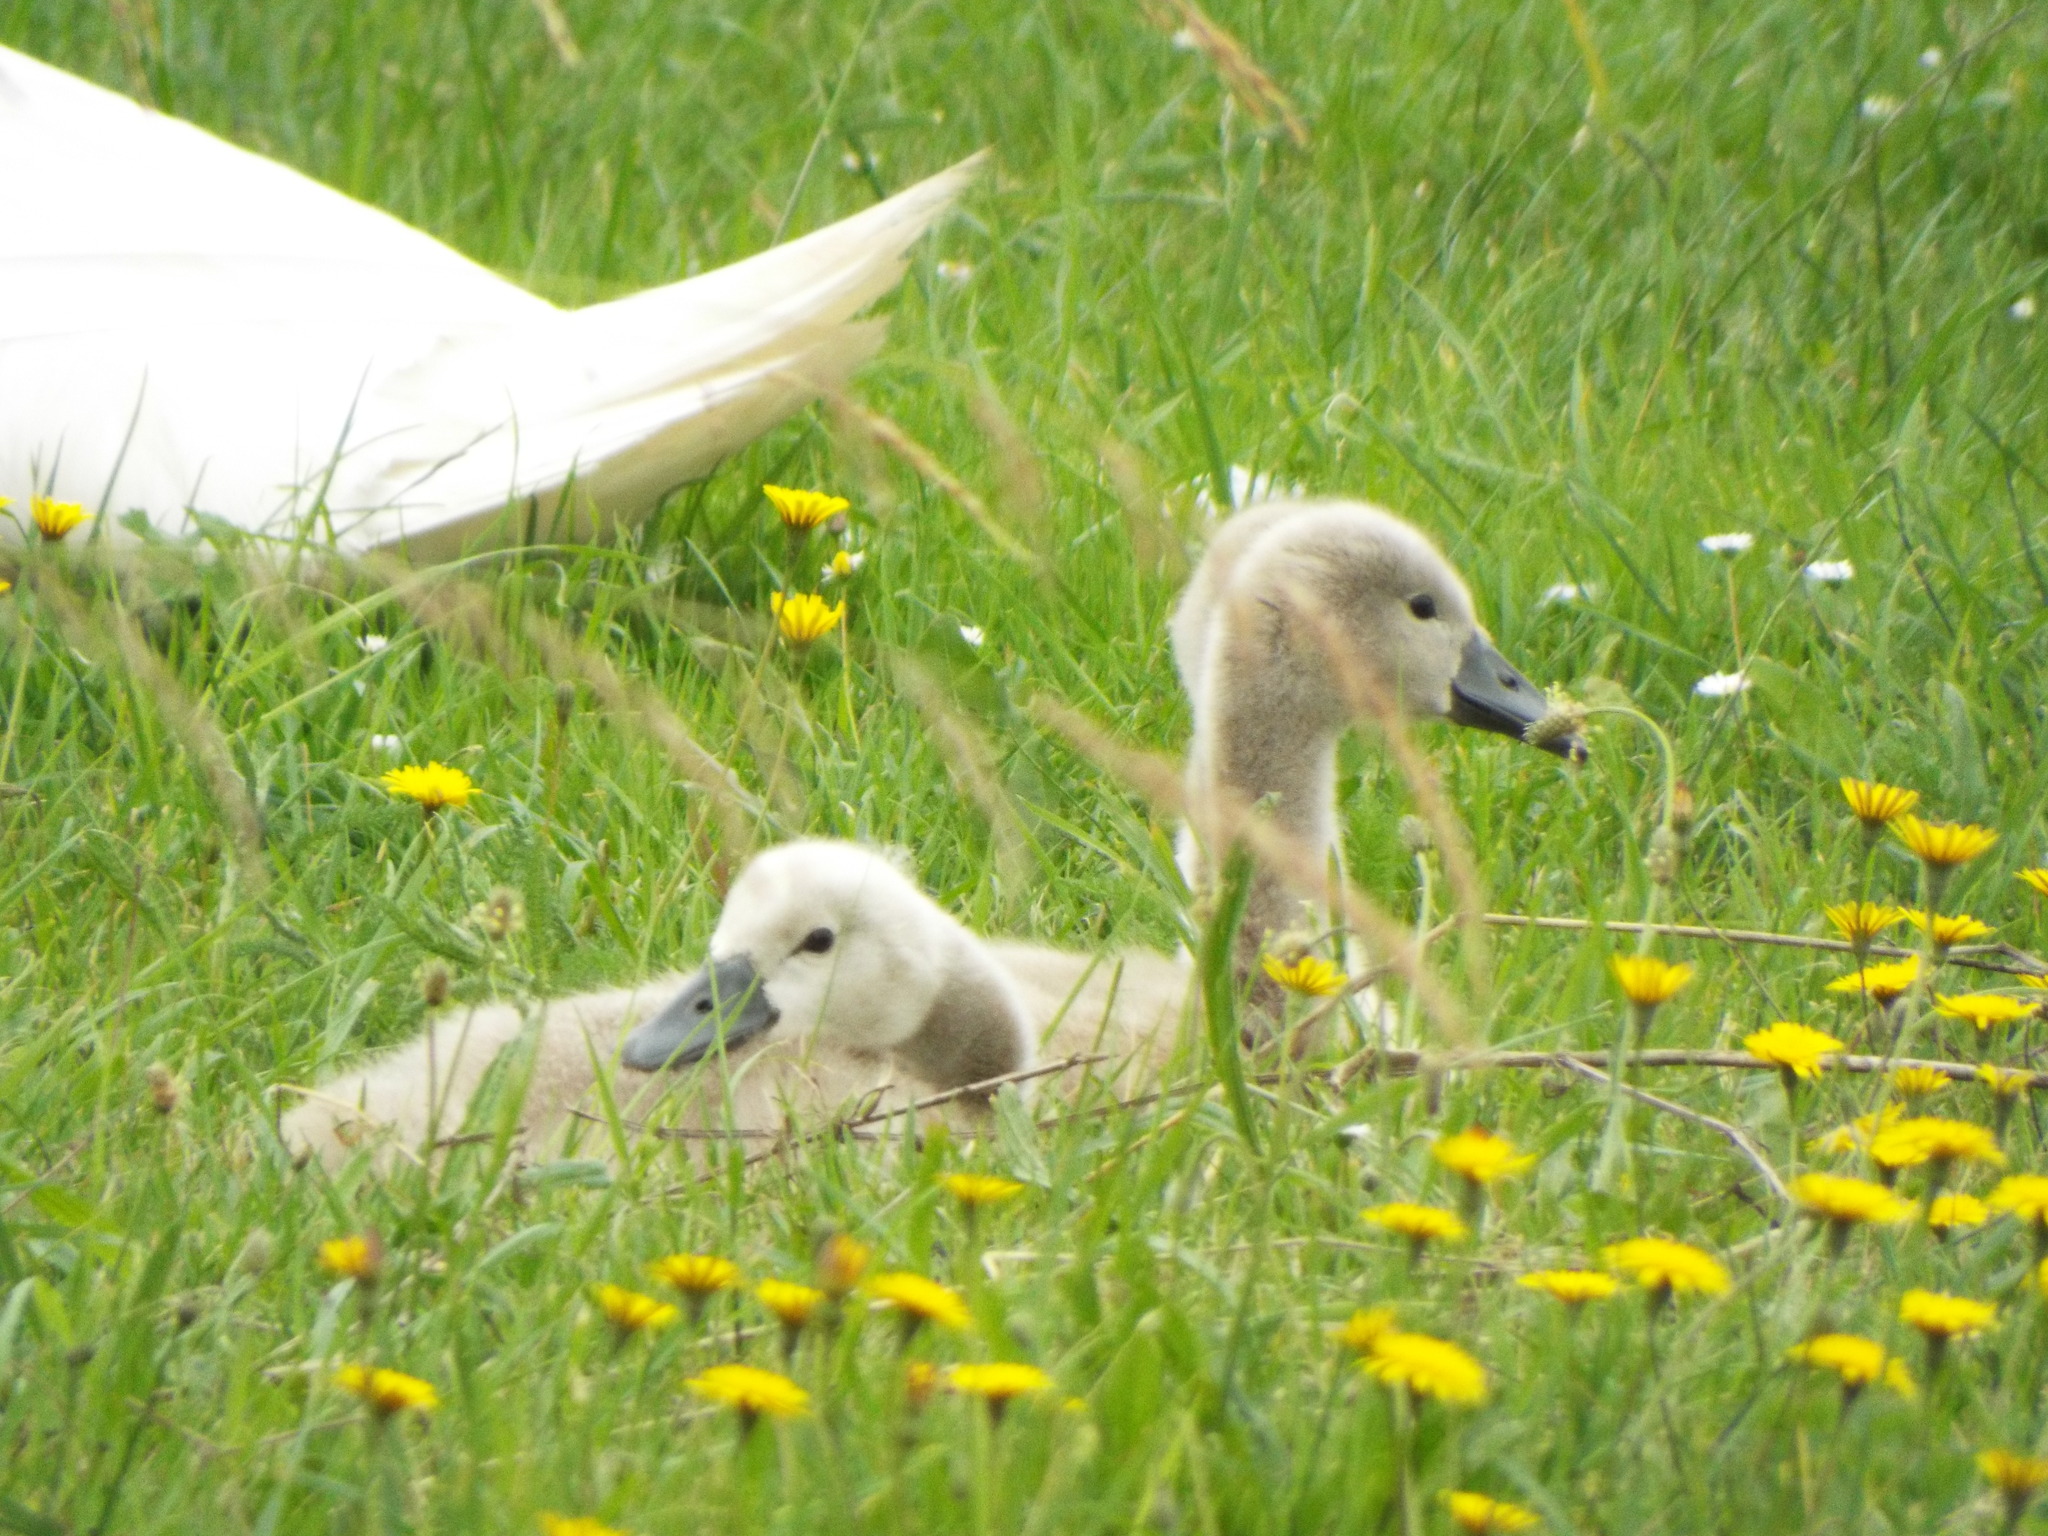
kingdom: Animalia
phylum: Chordata
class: Aves
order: Anseriformes
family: Anatidae
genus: Cygnus
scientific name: Cygnus olor
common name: Mute swan
